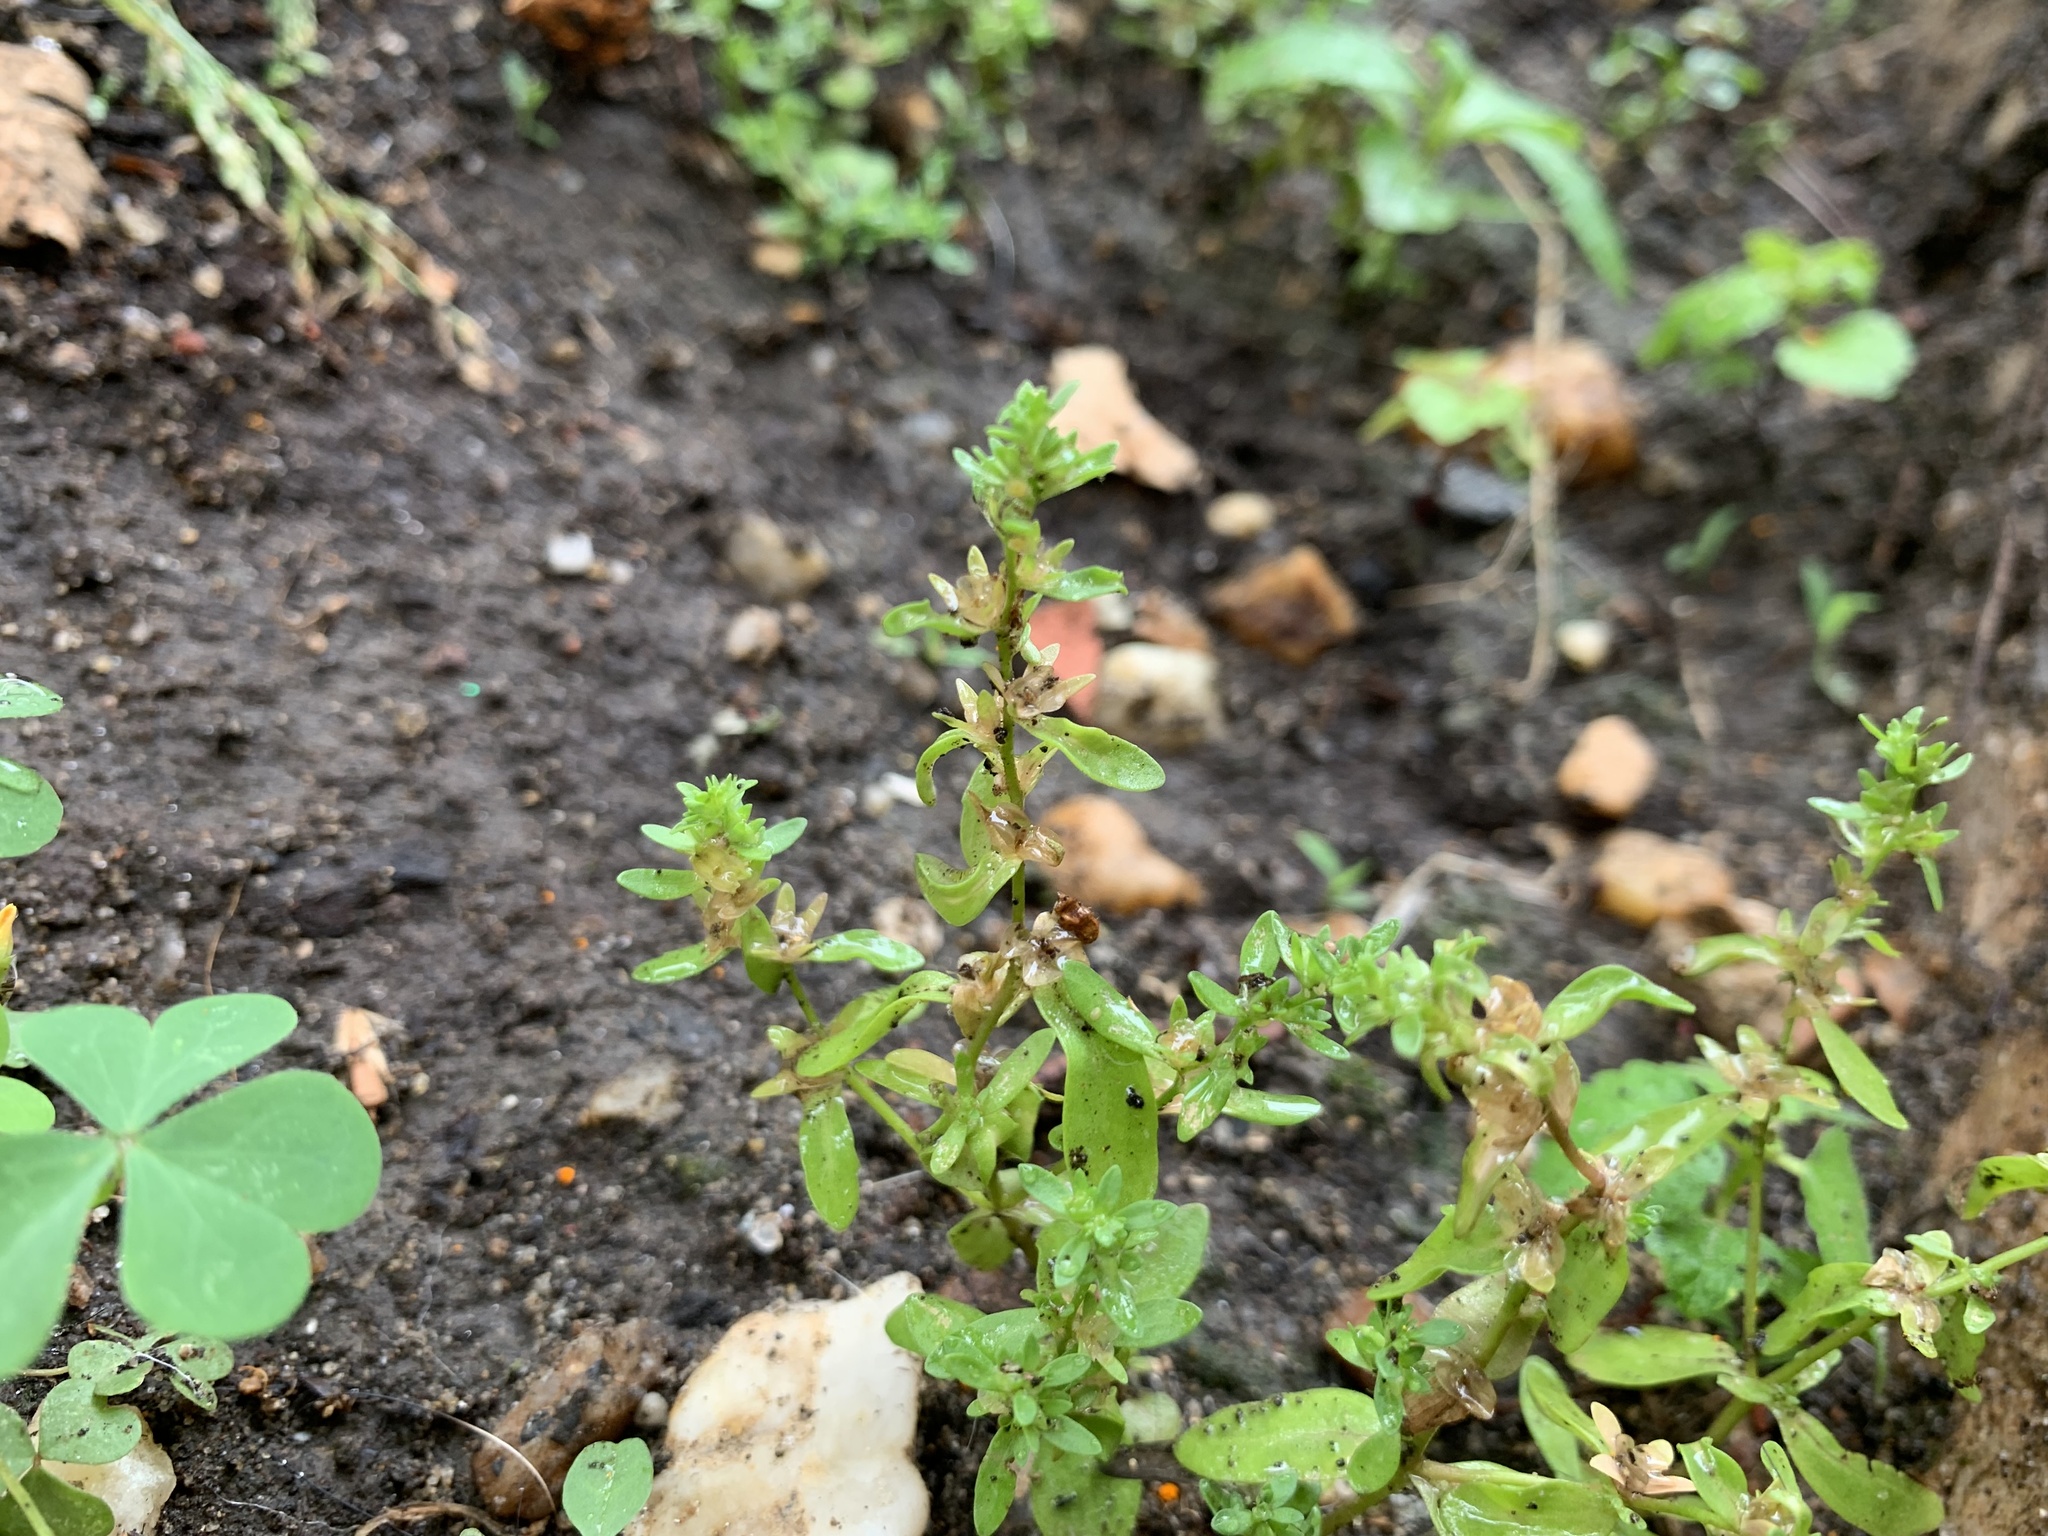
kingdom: Plantae
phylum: Tracheophyta
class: Magnoliopsida
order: Lamiales
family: Plantaginaceae
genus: Veronica
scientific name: Veronica peregrina
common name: Neckweed
